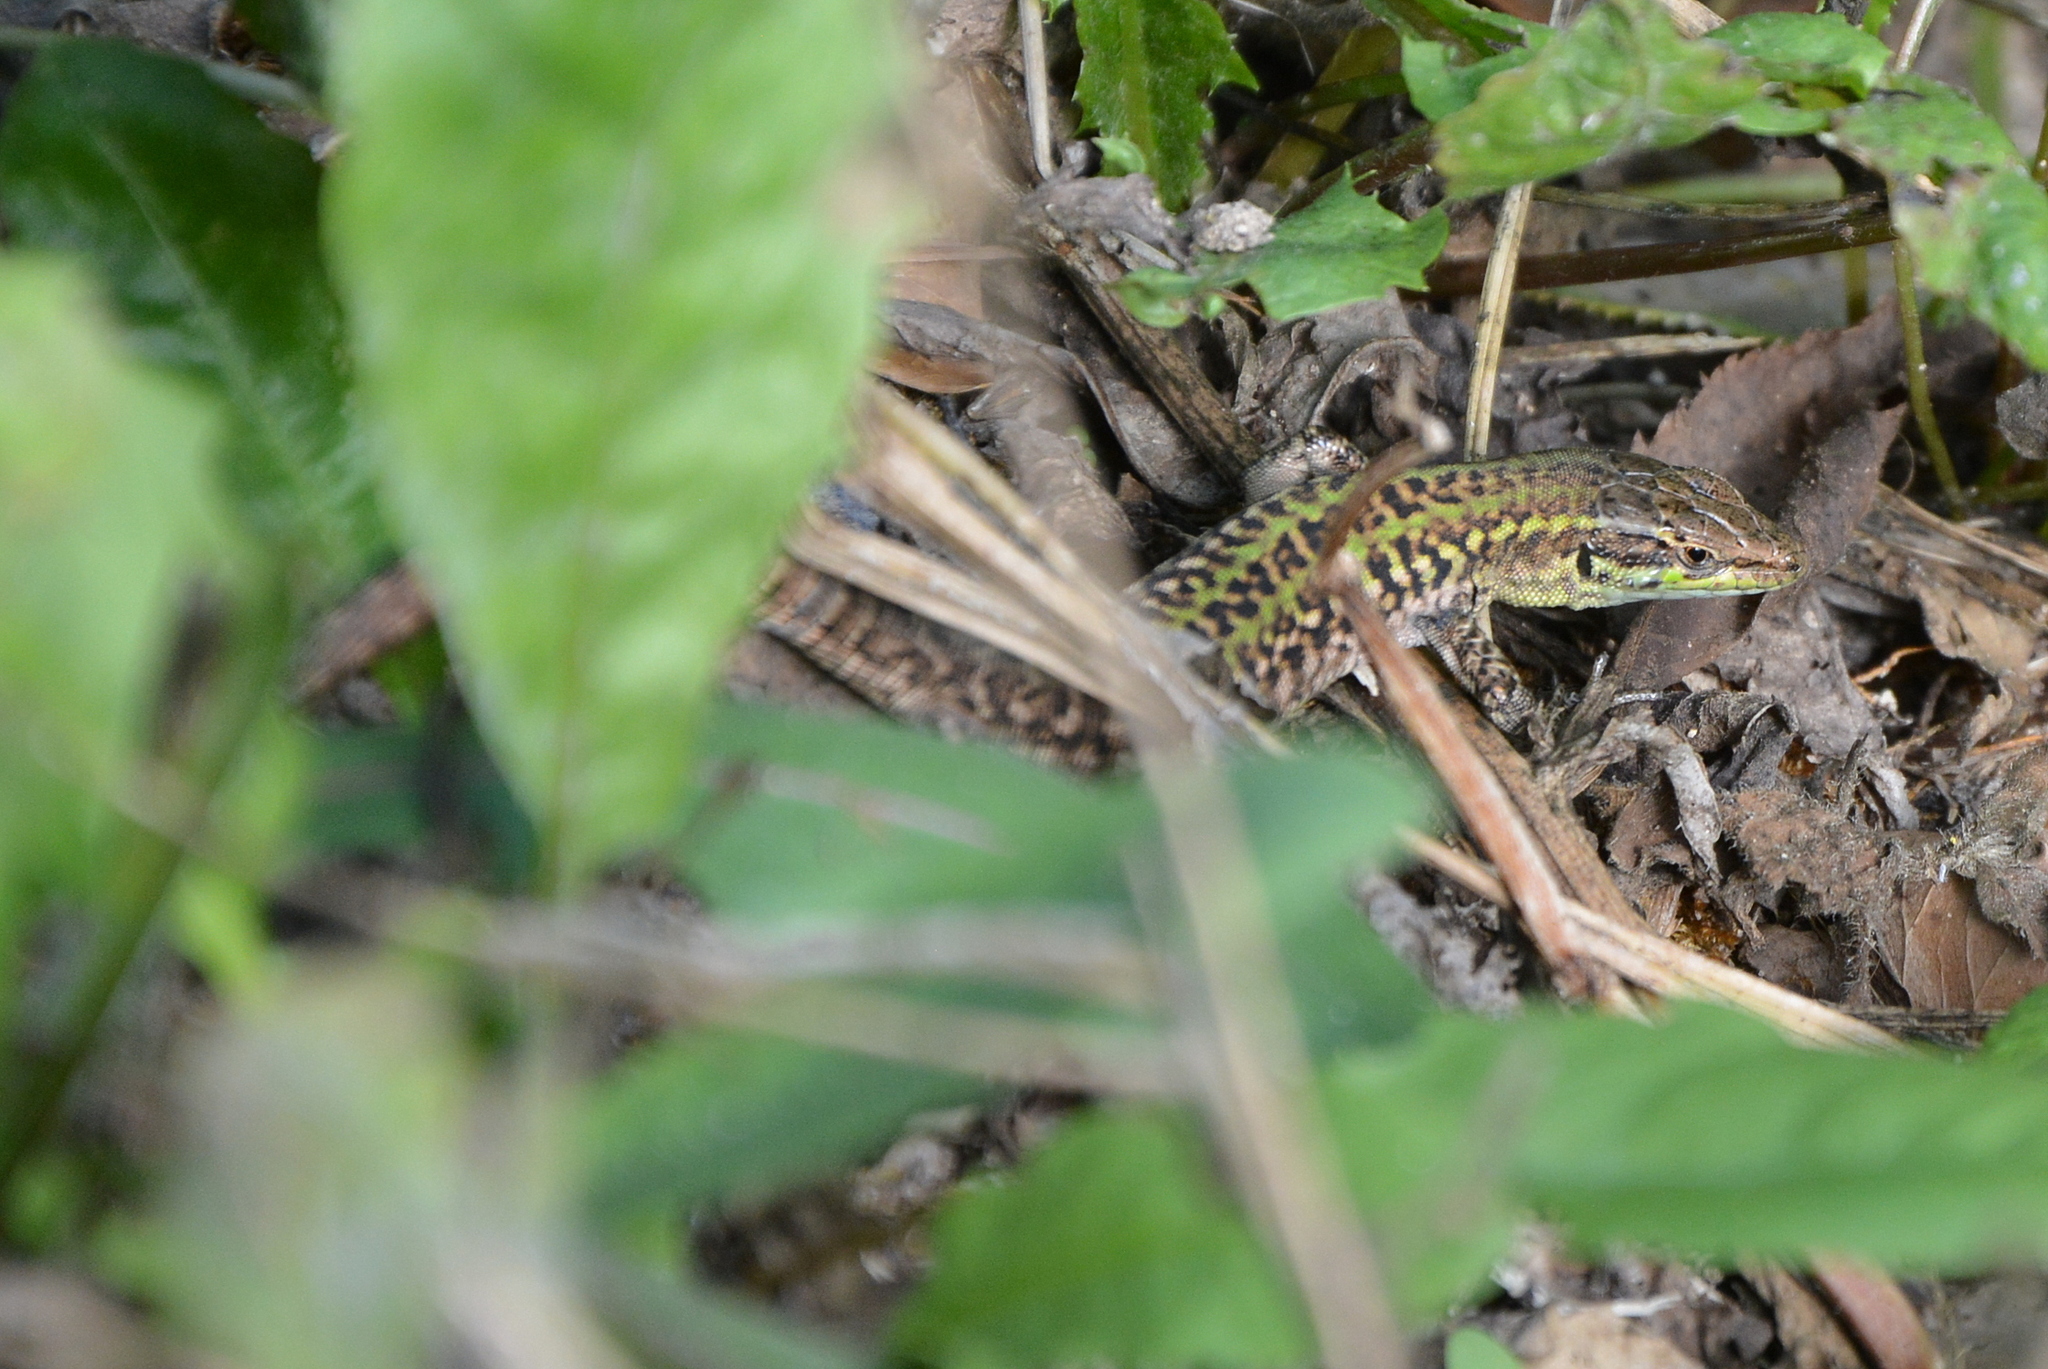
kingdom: Animalia
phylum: Chordata
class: Squamata
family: Lacertidae
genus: Podarcis
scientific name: Podarcis siculus
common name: Italian wall lizard
